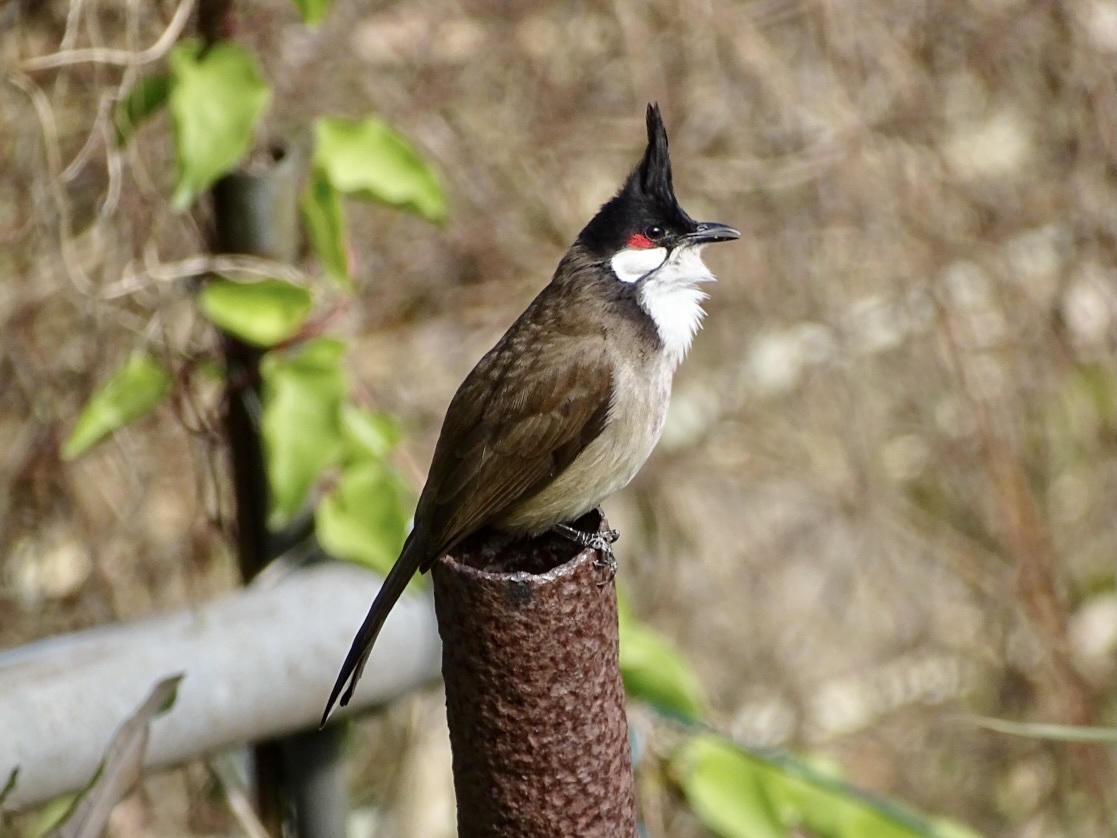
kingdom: Animalia
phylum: Chordata
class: Aves
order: Passeriformes
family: Pycnonotidae
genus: Pycnonotus
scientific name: Pycnonotus jocosus
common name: Red-whiskered bulbul
